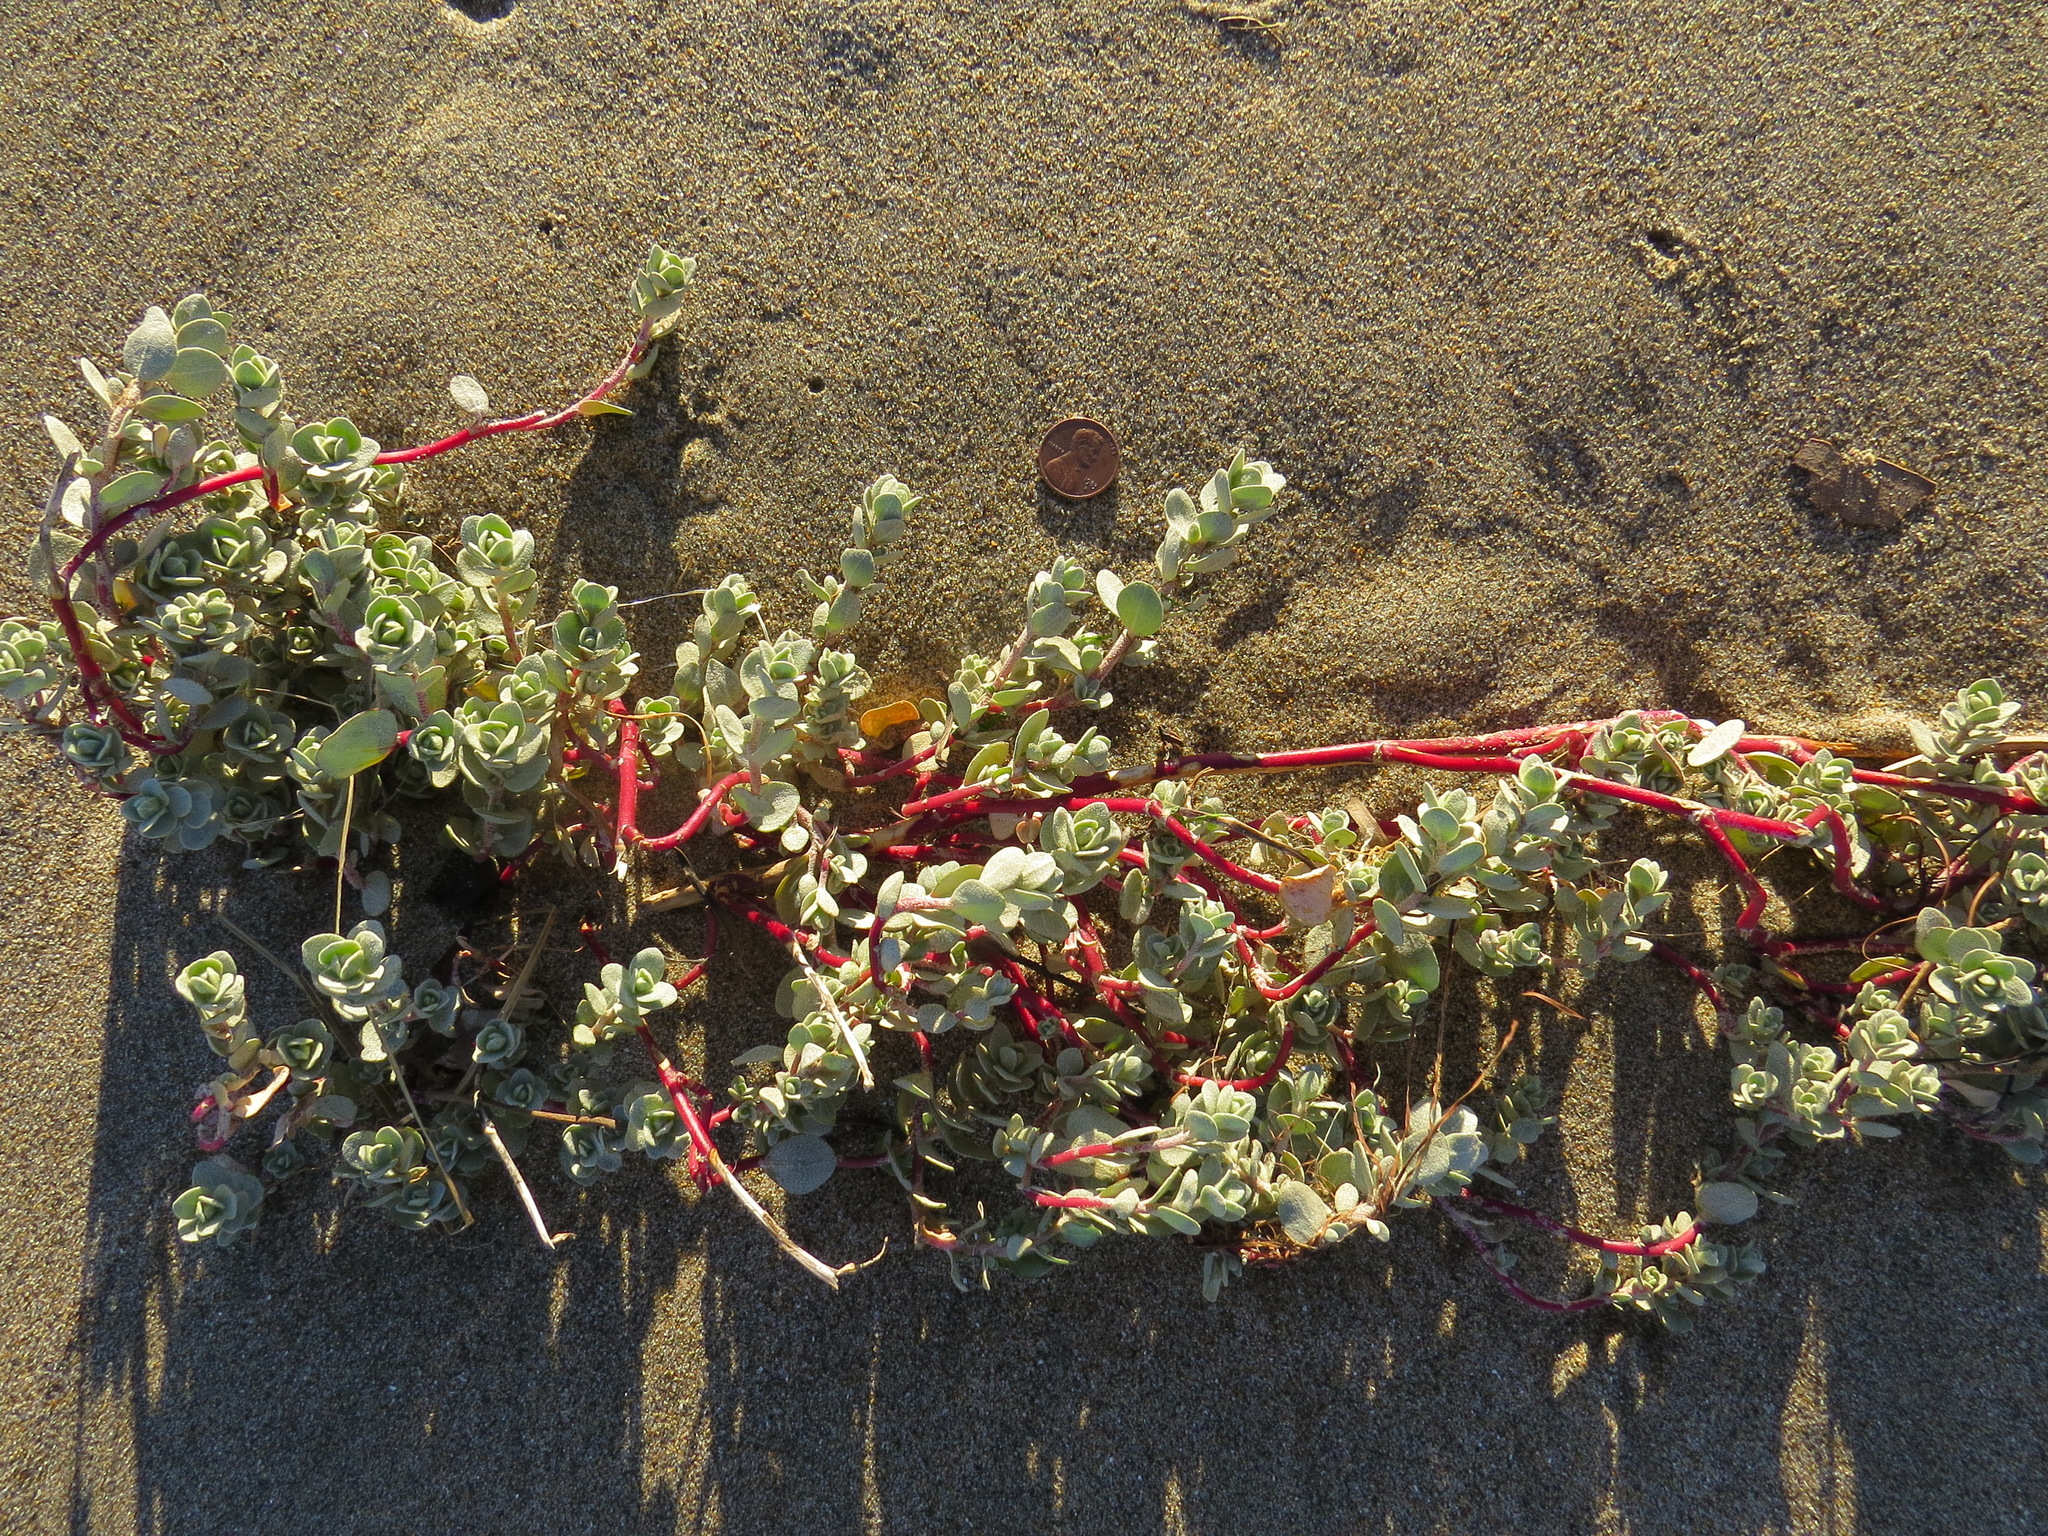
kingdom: Plantae
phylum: Tracheophyta
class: Magnoliopsida
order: Caryophyllales
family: Amaranthaceae
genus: Atriplex
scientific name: Atriplex leucophylla
